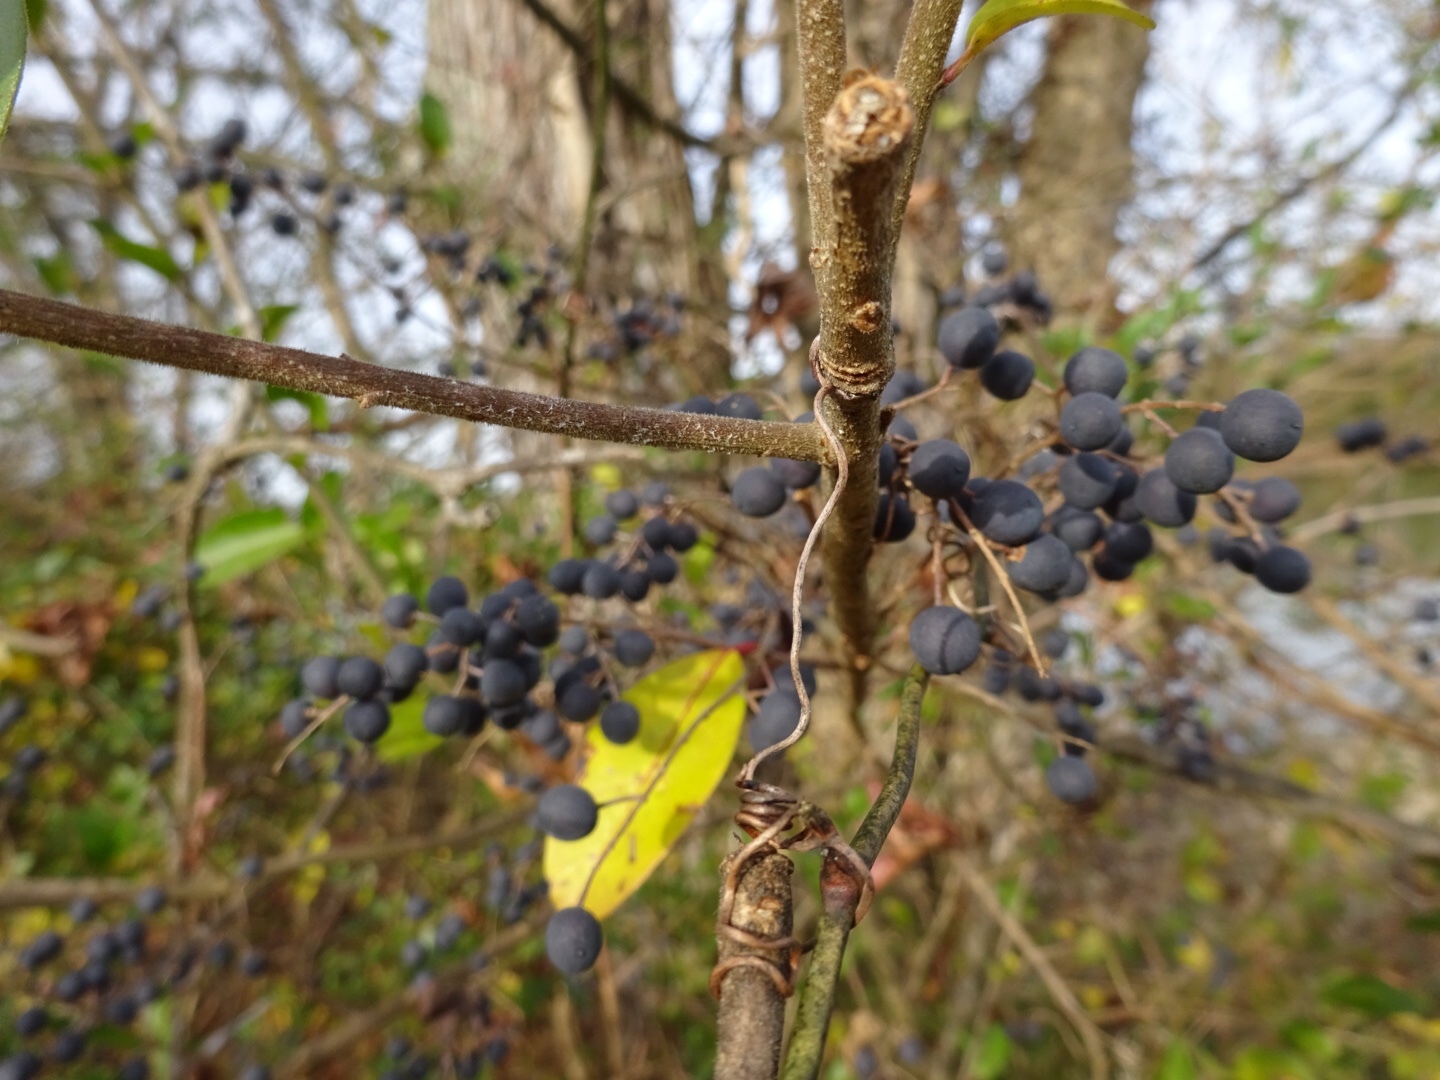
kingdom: Plantae
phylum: Tracheophyta
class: Magnoliopsida
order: Lamiales
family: Oleaceae
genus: Ligustrum
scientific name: Ligustrum sinense
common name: Chinese privet
